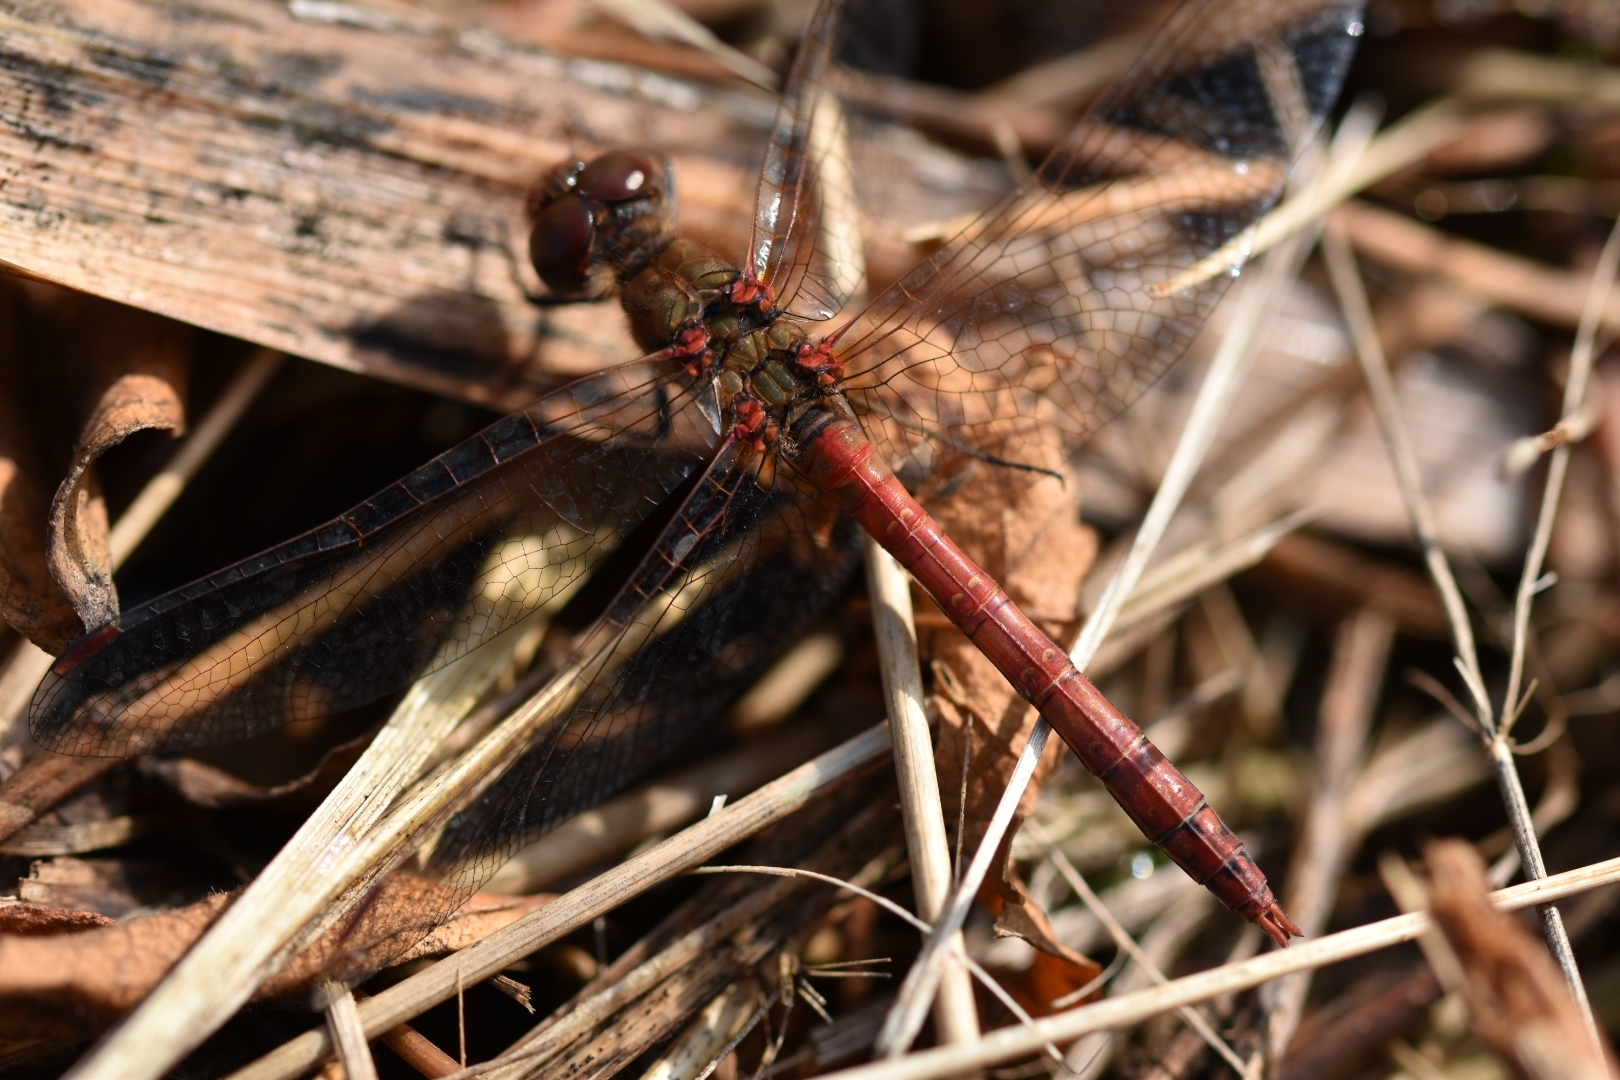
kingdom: Animalia
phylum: Arthropoda
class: Insecta
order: Odonata
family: Libellulidae
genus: Sympetrum
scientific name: Sympetrum vulgatum
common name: Vagrant darter
